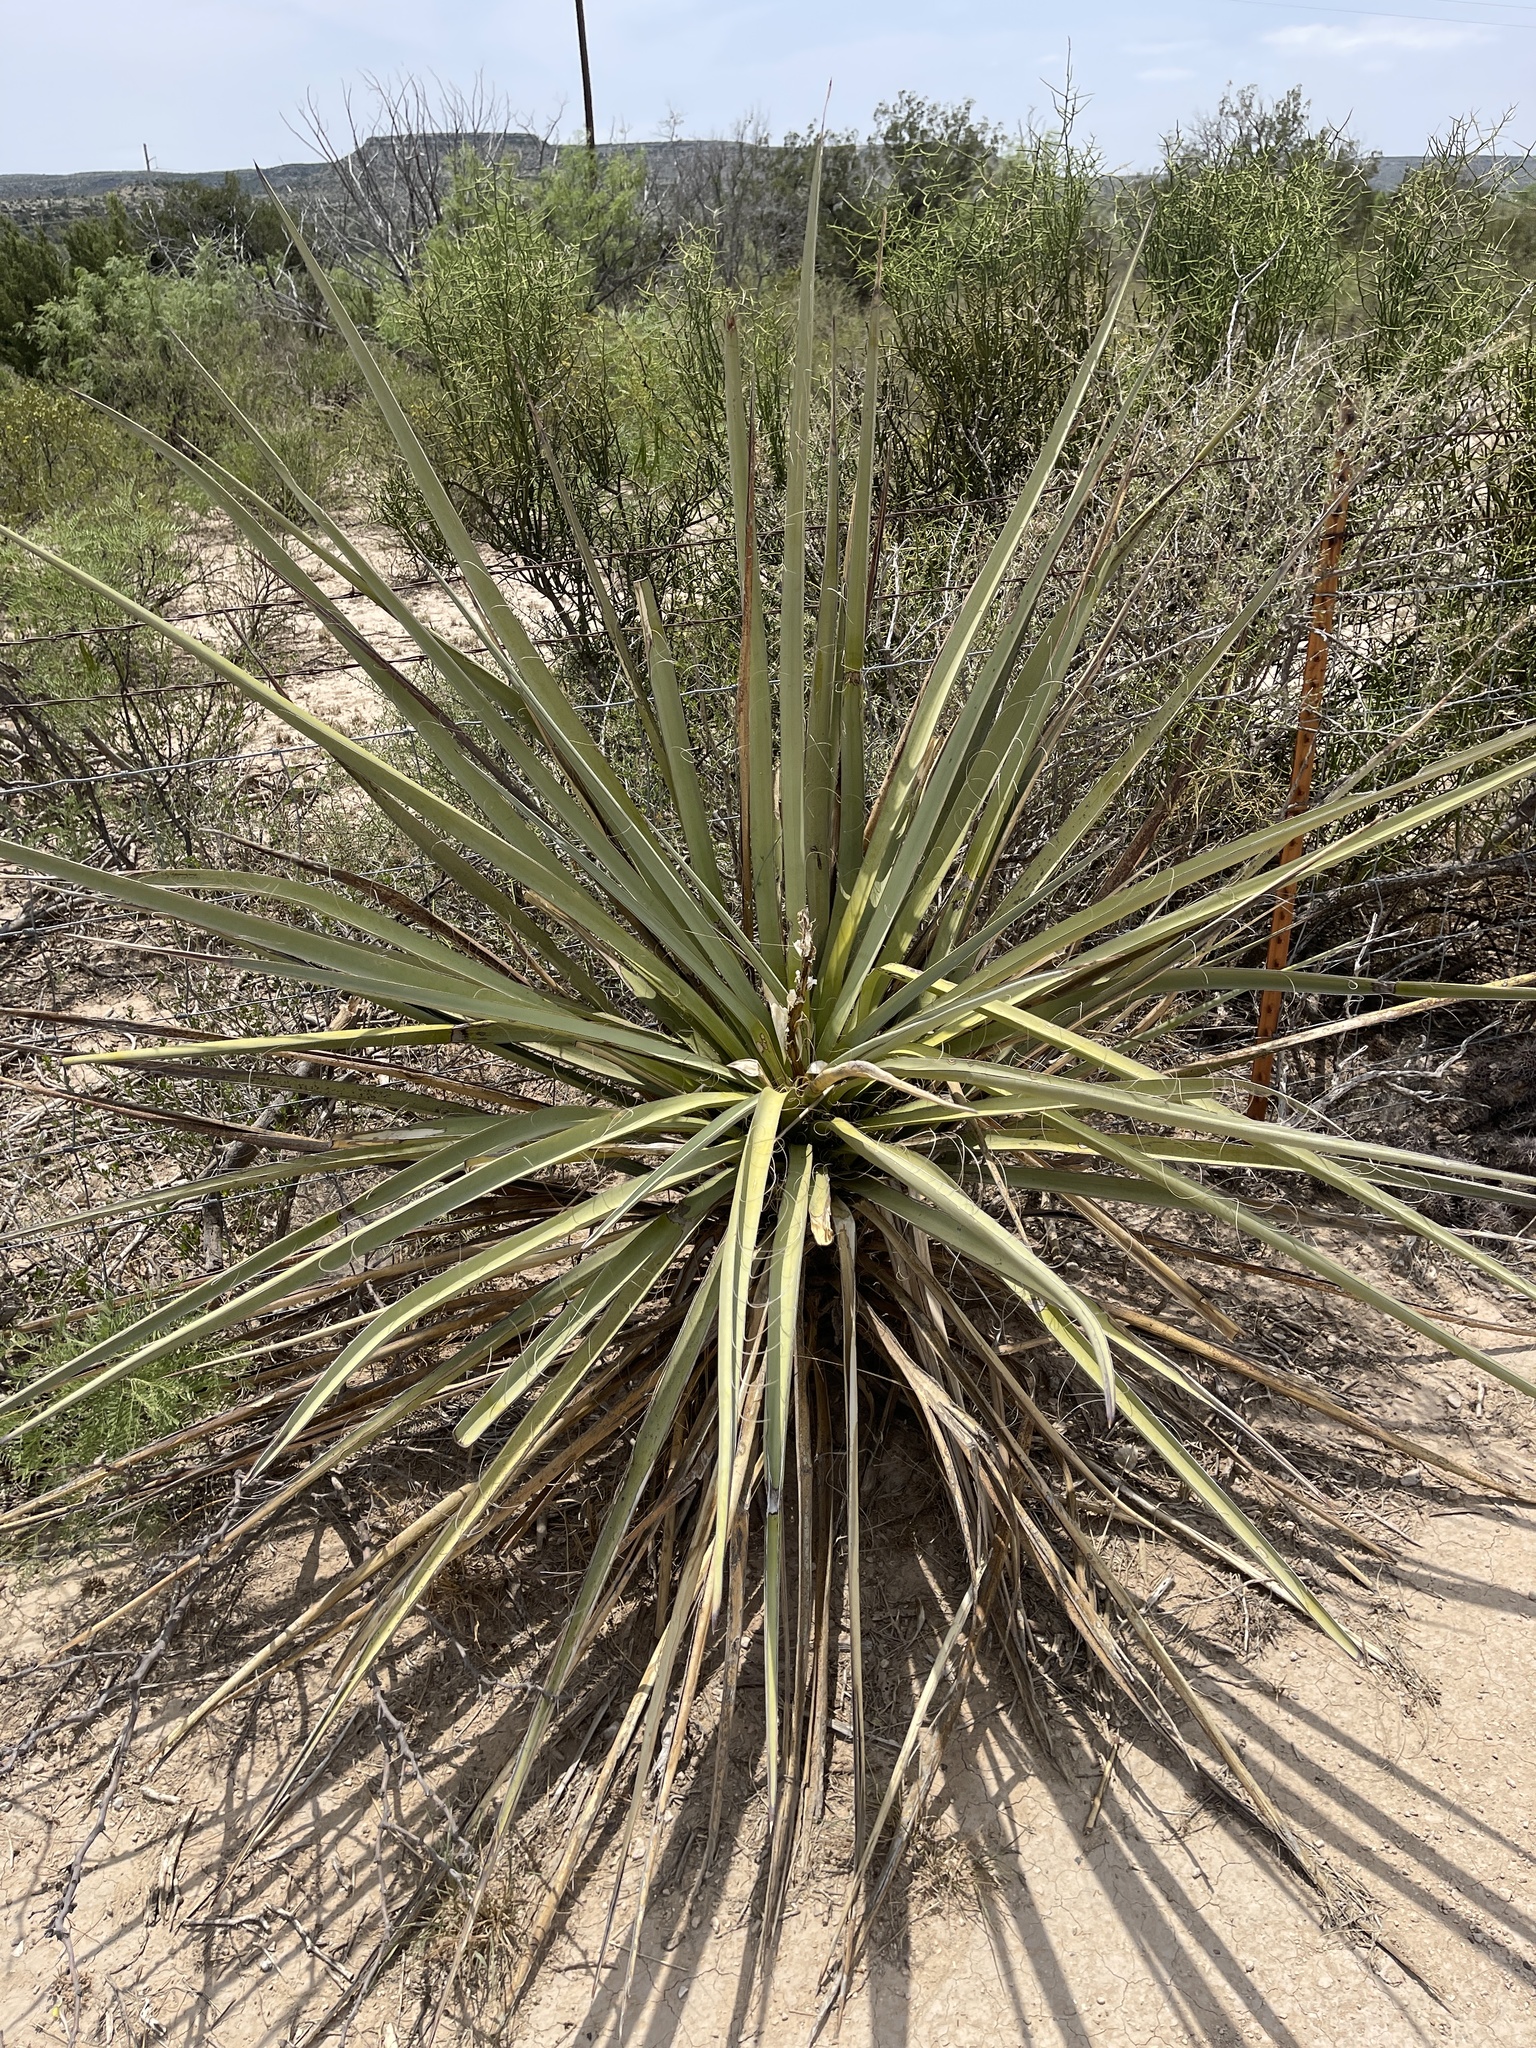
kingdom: Plantae
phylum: Tracheophyta
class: Liliopsida
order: Asparagales
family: Asparagaceae
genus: Yucca
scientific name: Yucca treculiana
